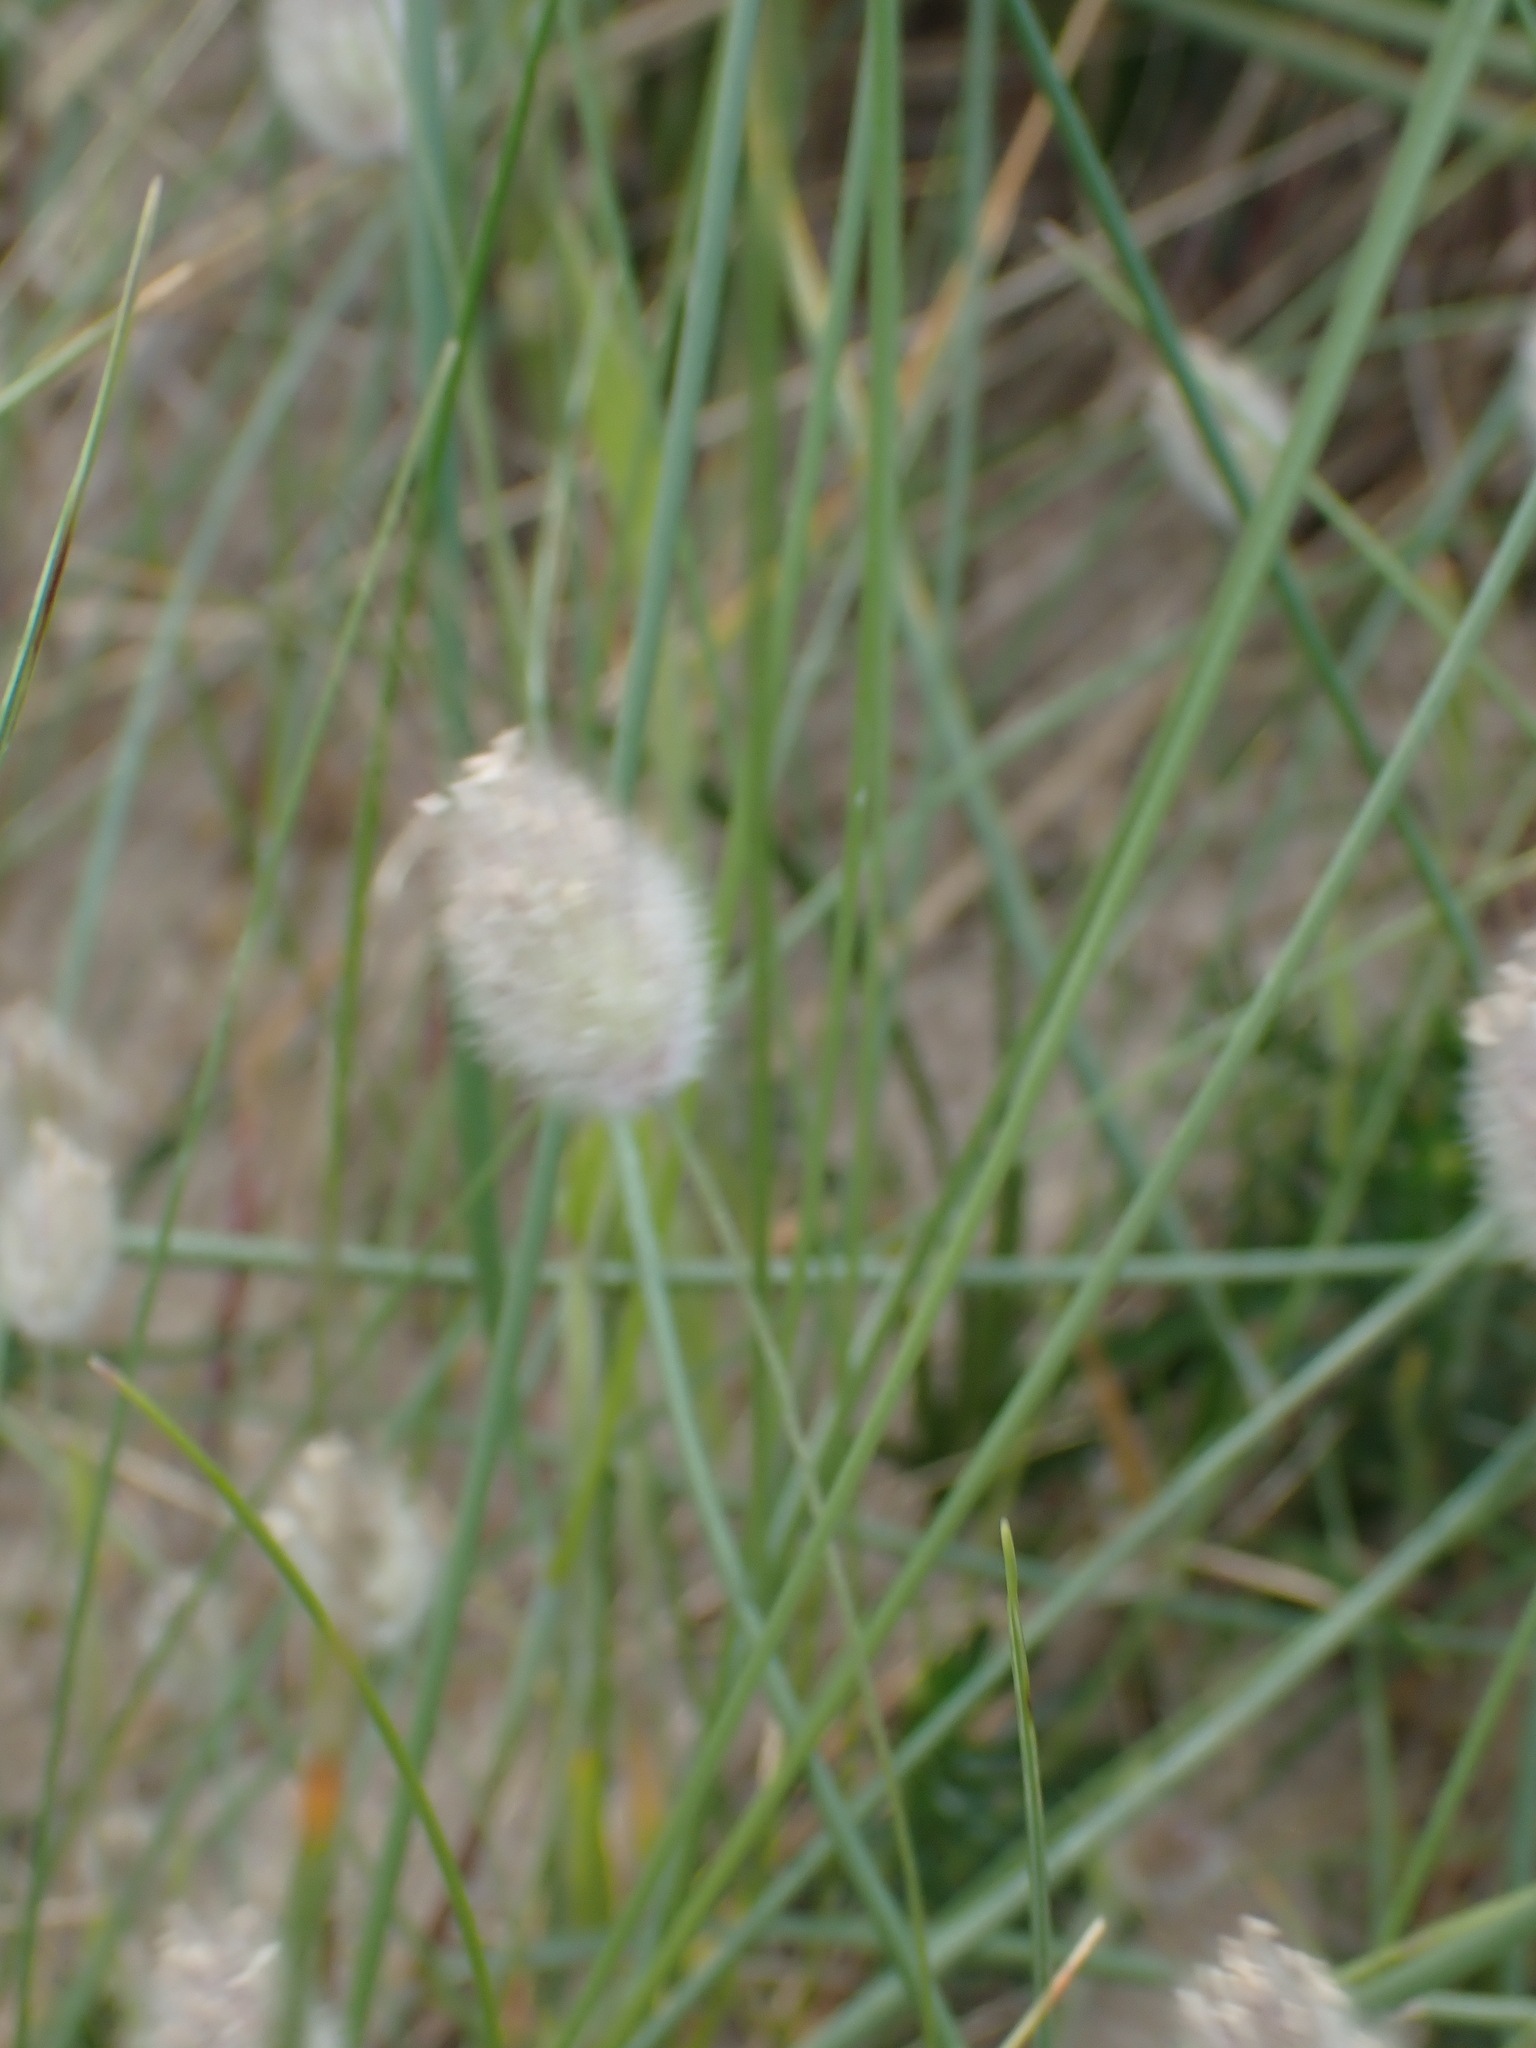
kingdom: Plantae
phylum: Tracheophyta
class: Liliopsida
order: Poales
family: Poaceae
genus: Lagurus
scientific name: Lagurus ovatus
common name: Hare's-tail
